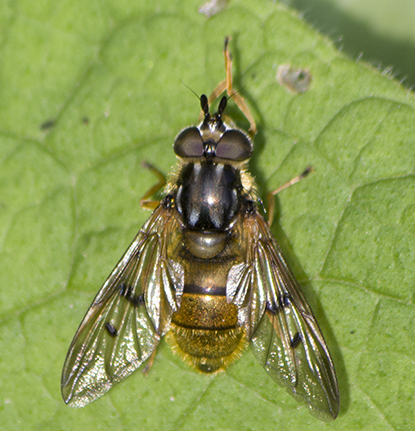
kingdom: Animalia
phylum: Arthropoda
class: Insecta
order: Diptera
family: Syrphidae
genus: Ferdinandea
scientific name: Ferdinandea aurea
